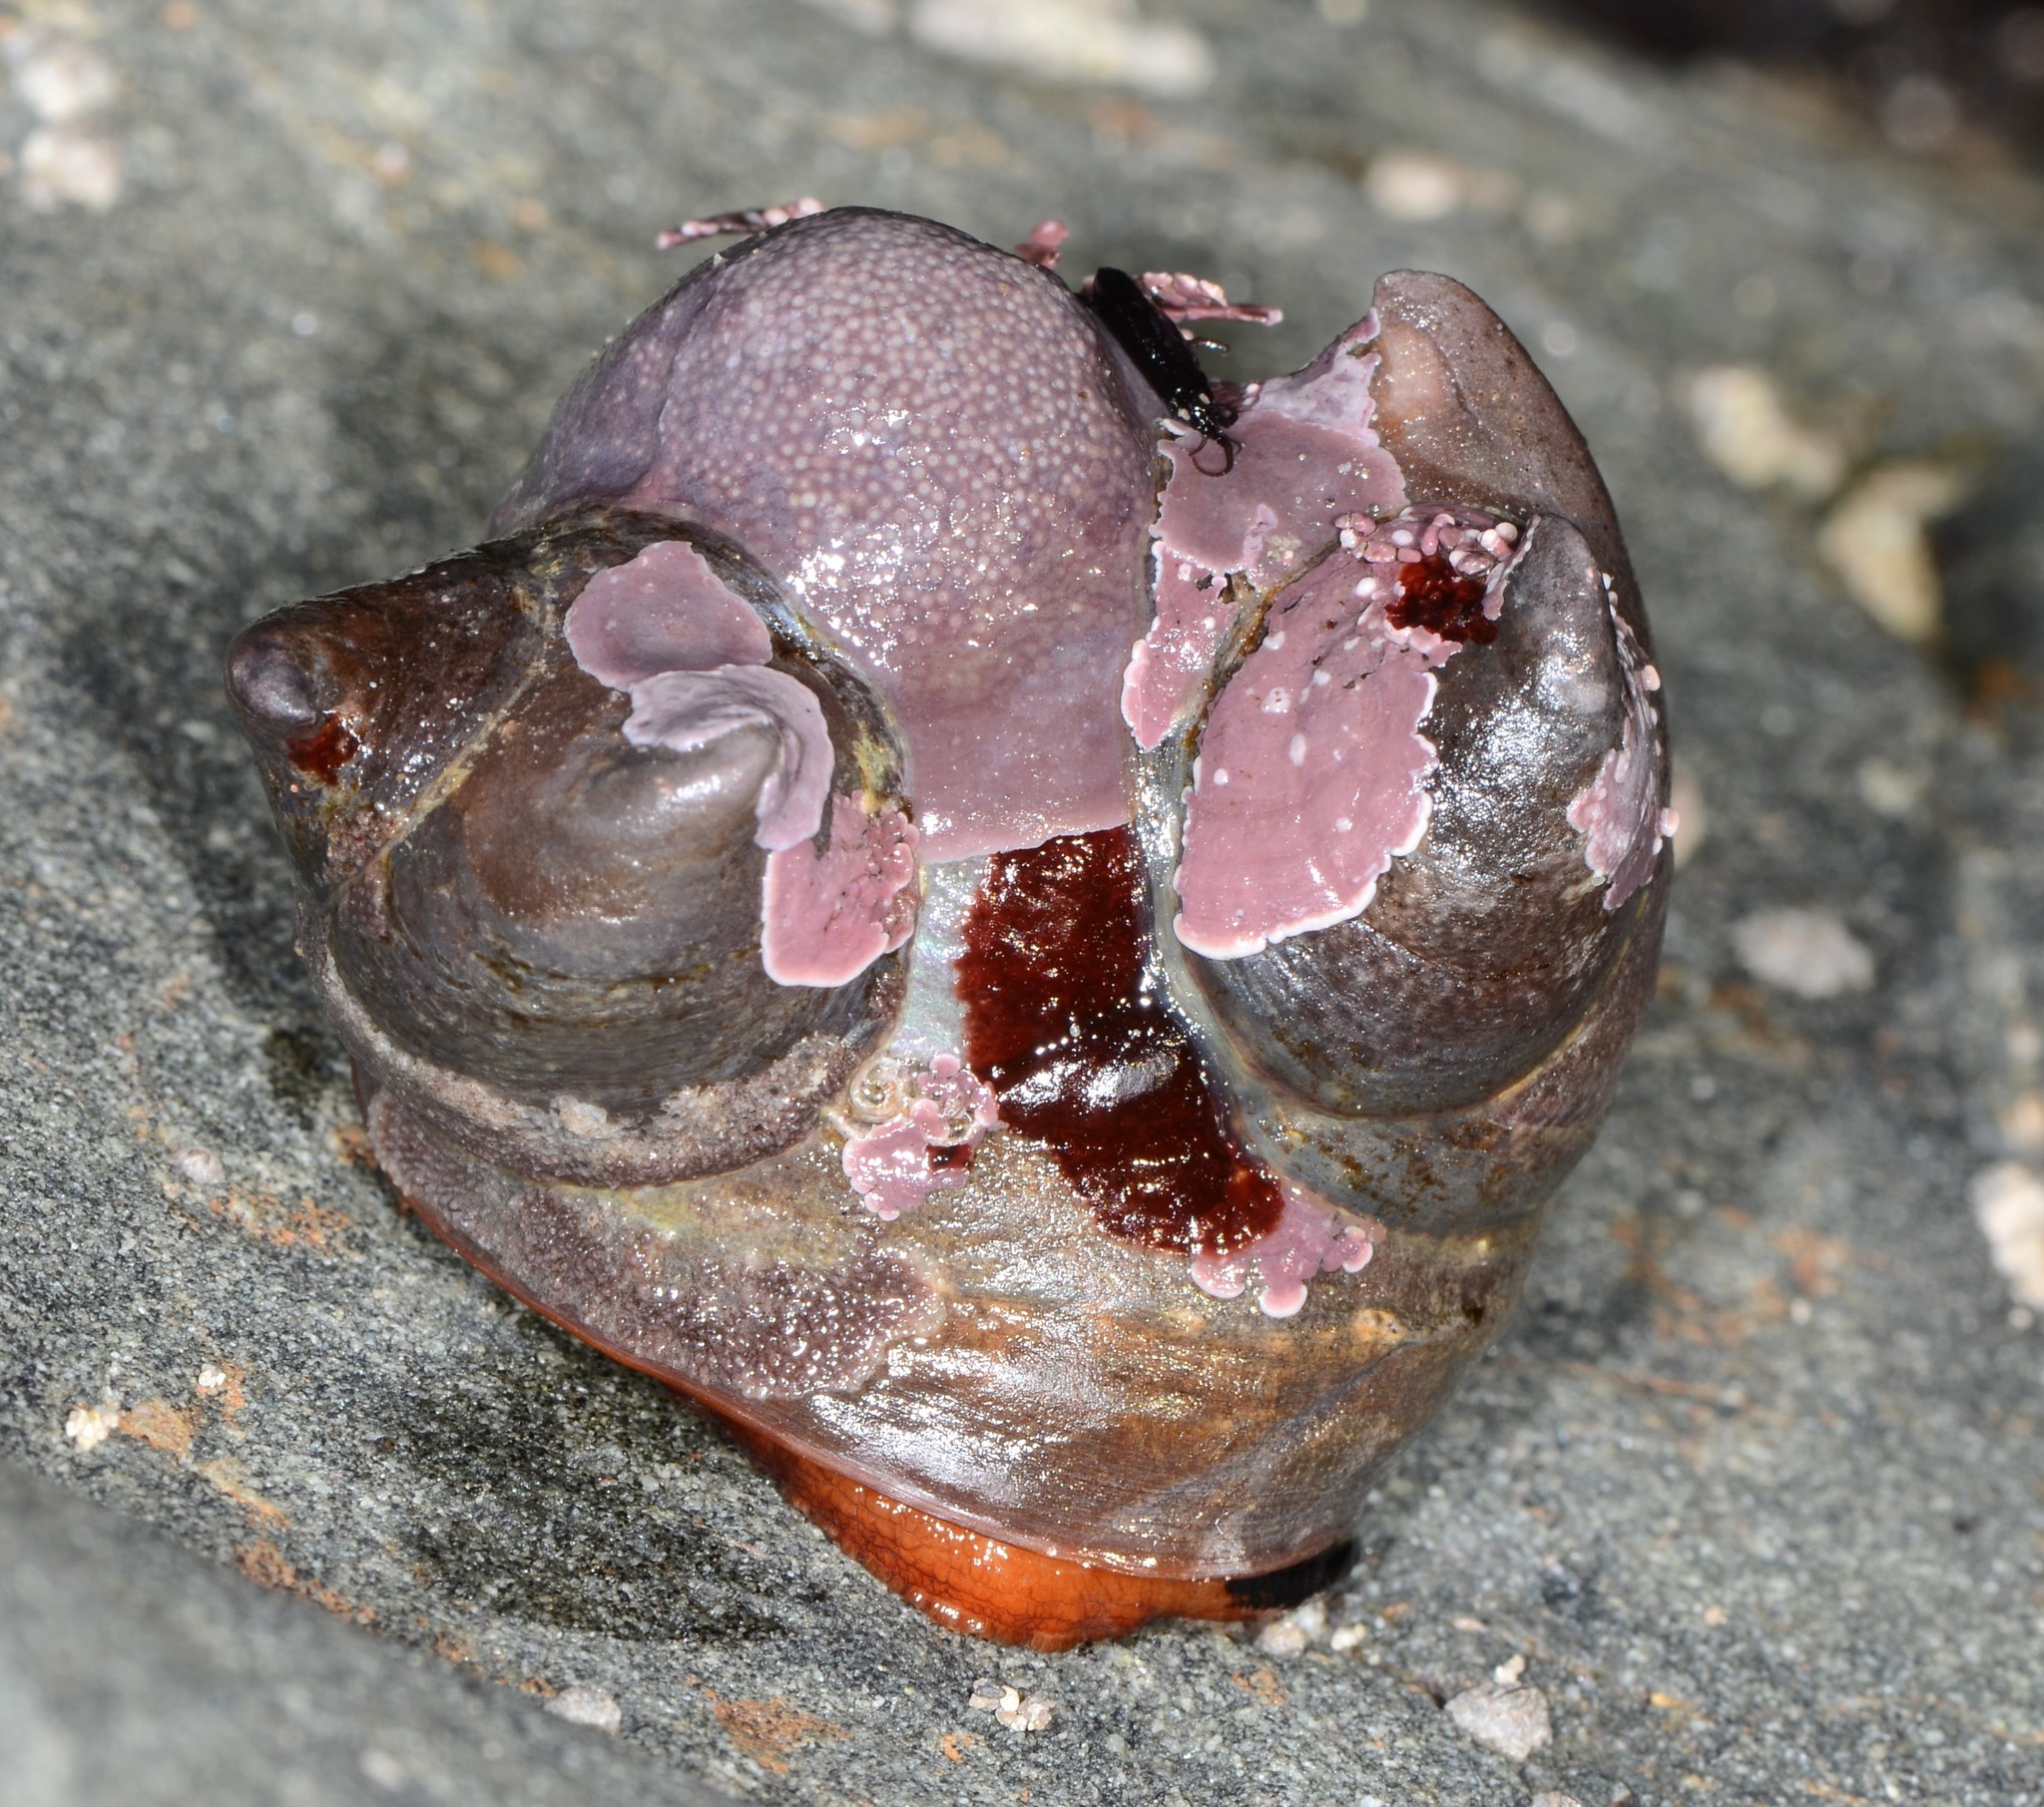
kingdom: Animalia
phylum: Mollusca
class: Gastropoda
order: Littorinimorpha
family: Calyptraeidae
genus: Crepidula
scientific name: Crepidula adunca
